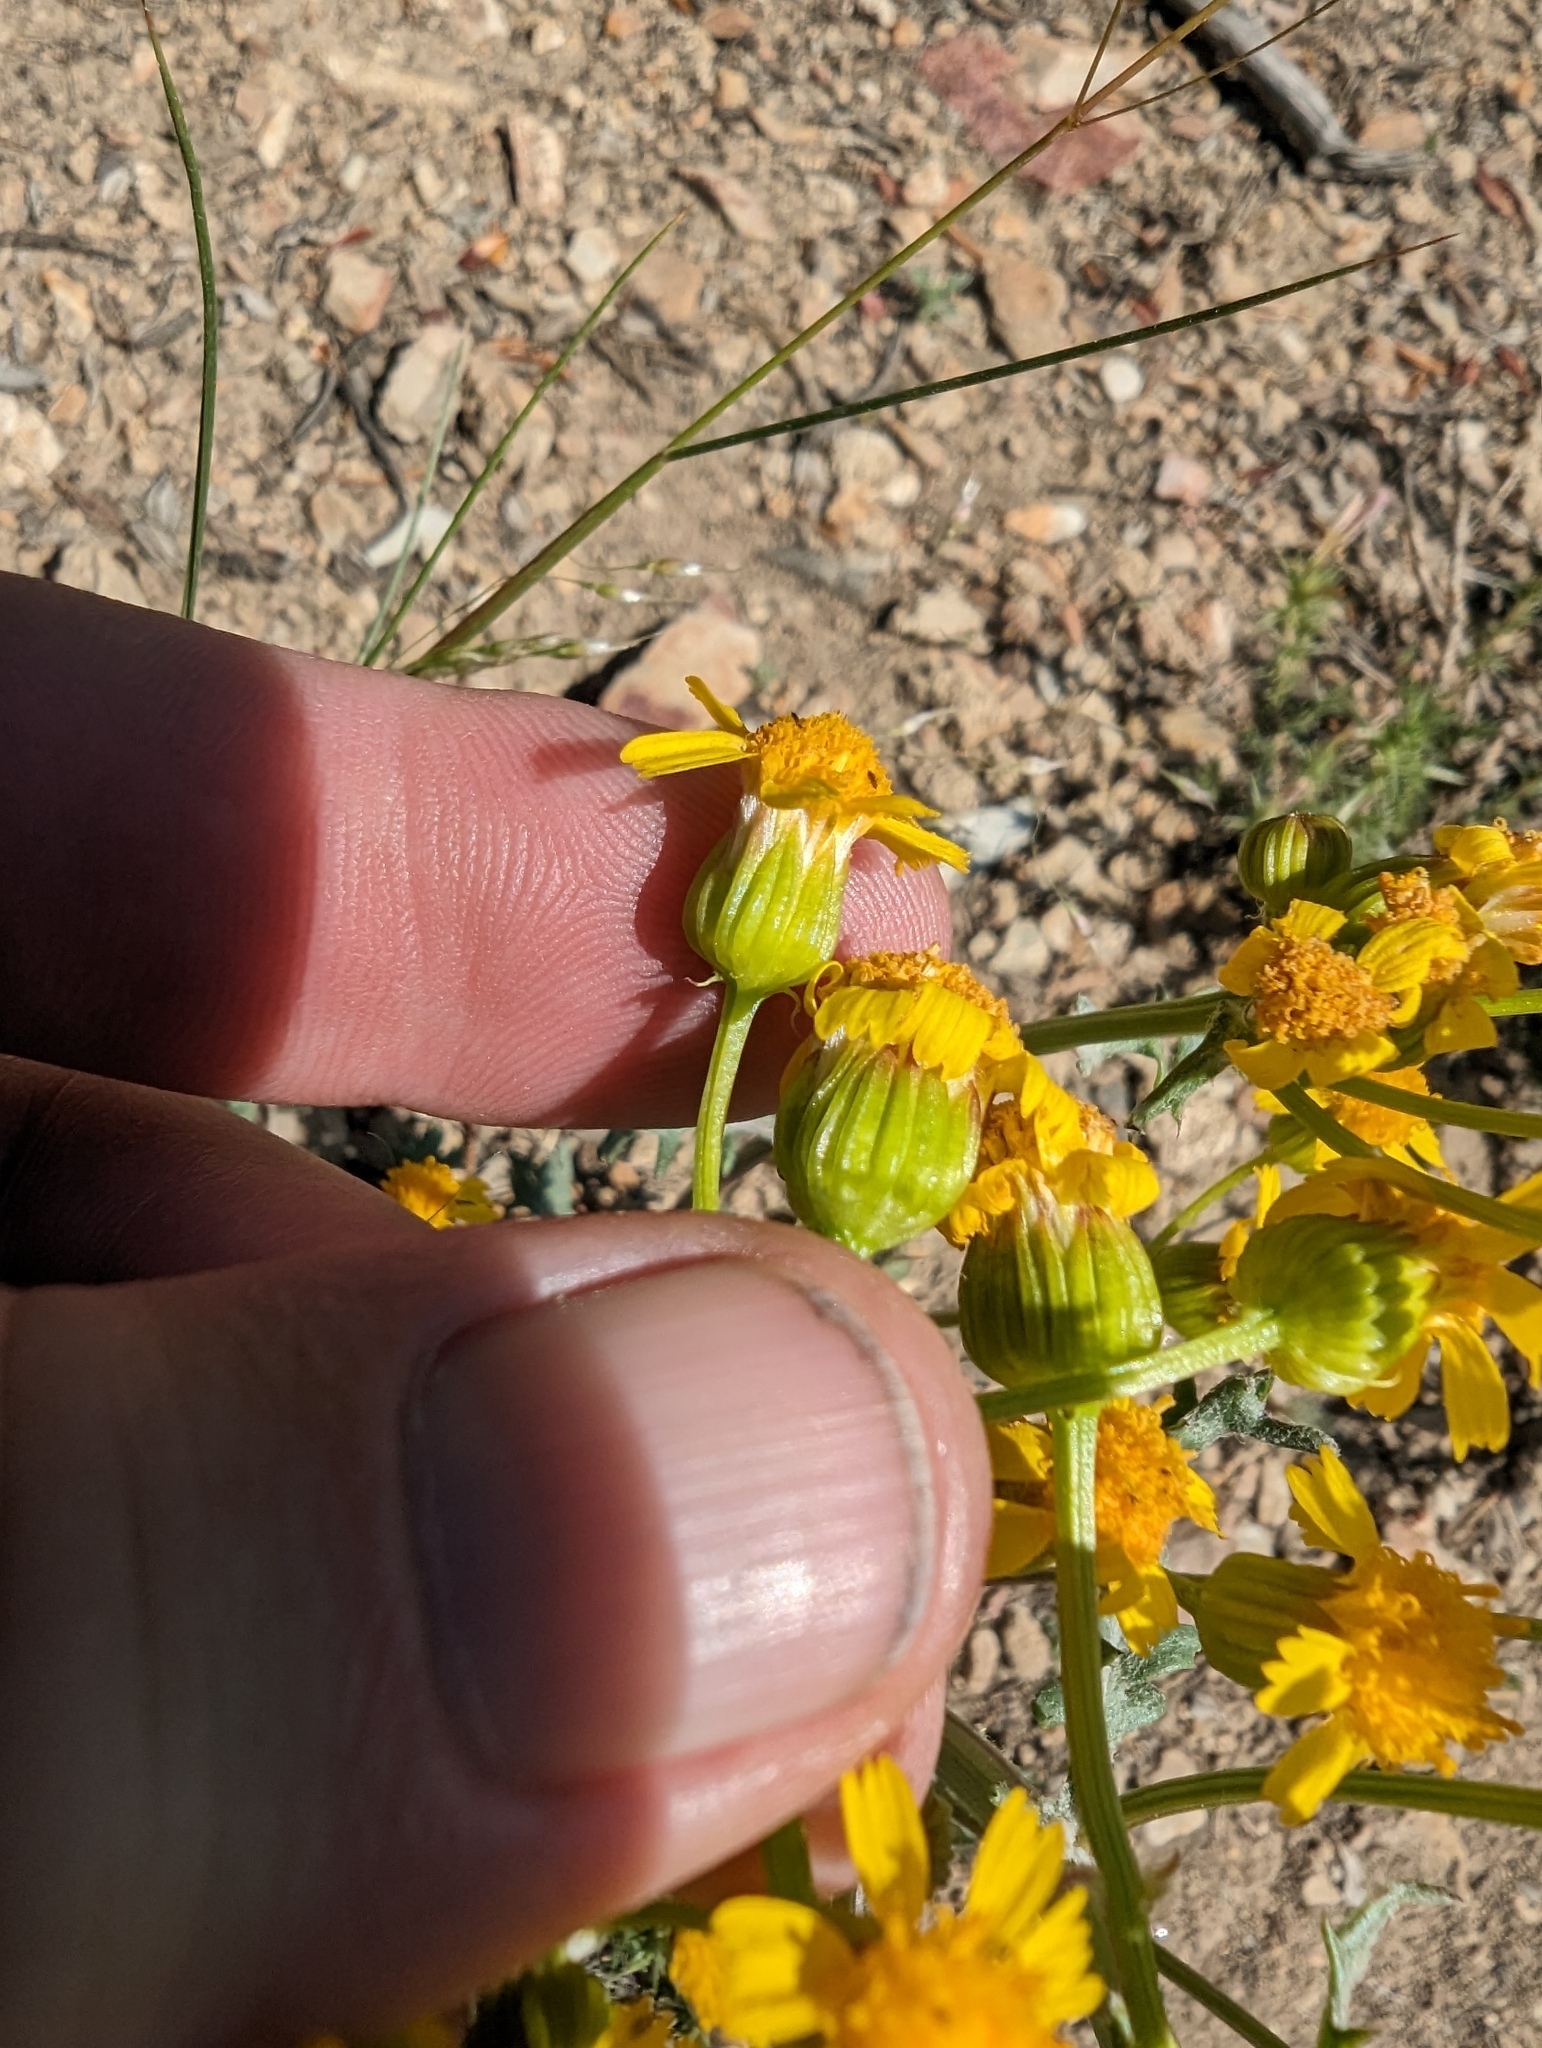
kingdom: Plantae
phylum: Tracheophyta
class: Magnoliopsida
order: Asterales
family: Asteraceae
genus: Packera
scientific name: Packera multilobata
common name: Lobe-leaf groundsel
